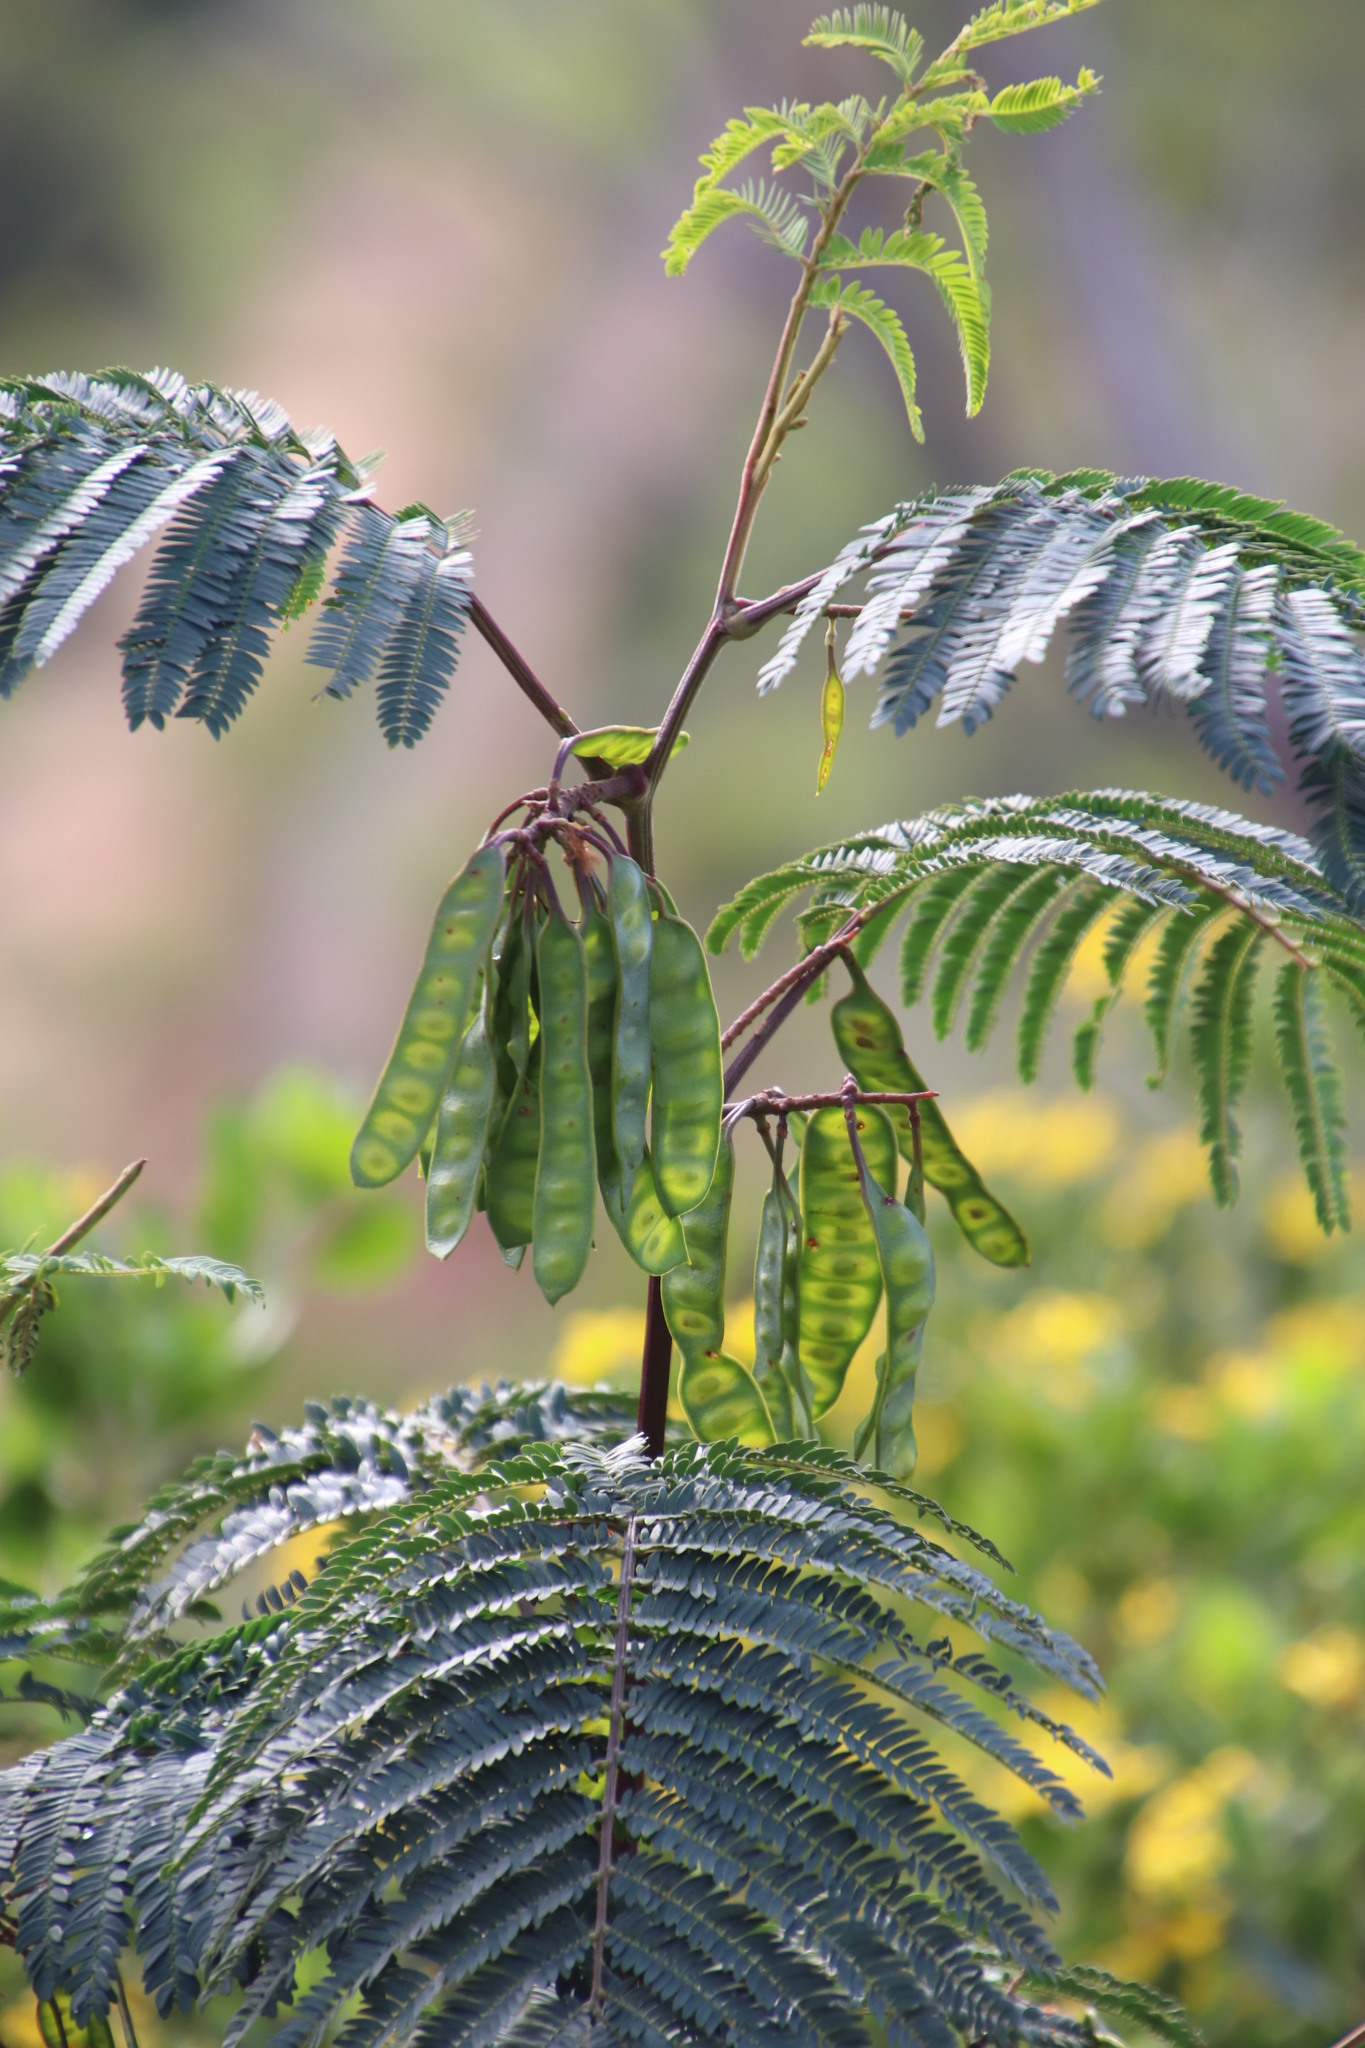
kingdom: Plantae
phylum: Tracheophyta
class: Magnoliopsida
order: Fabales
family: Fabaceae
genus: Paraserianthes
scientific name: Paraserianthes lophantha
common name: Plume albizia
